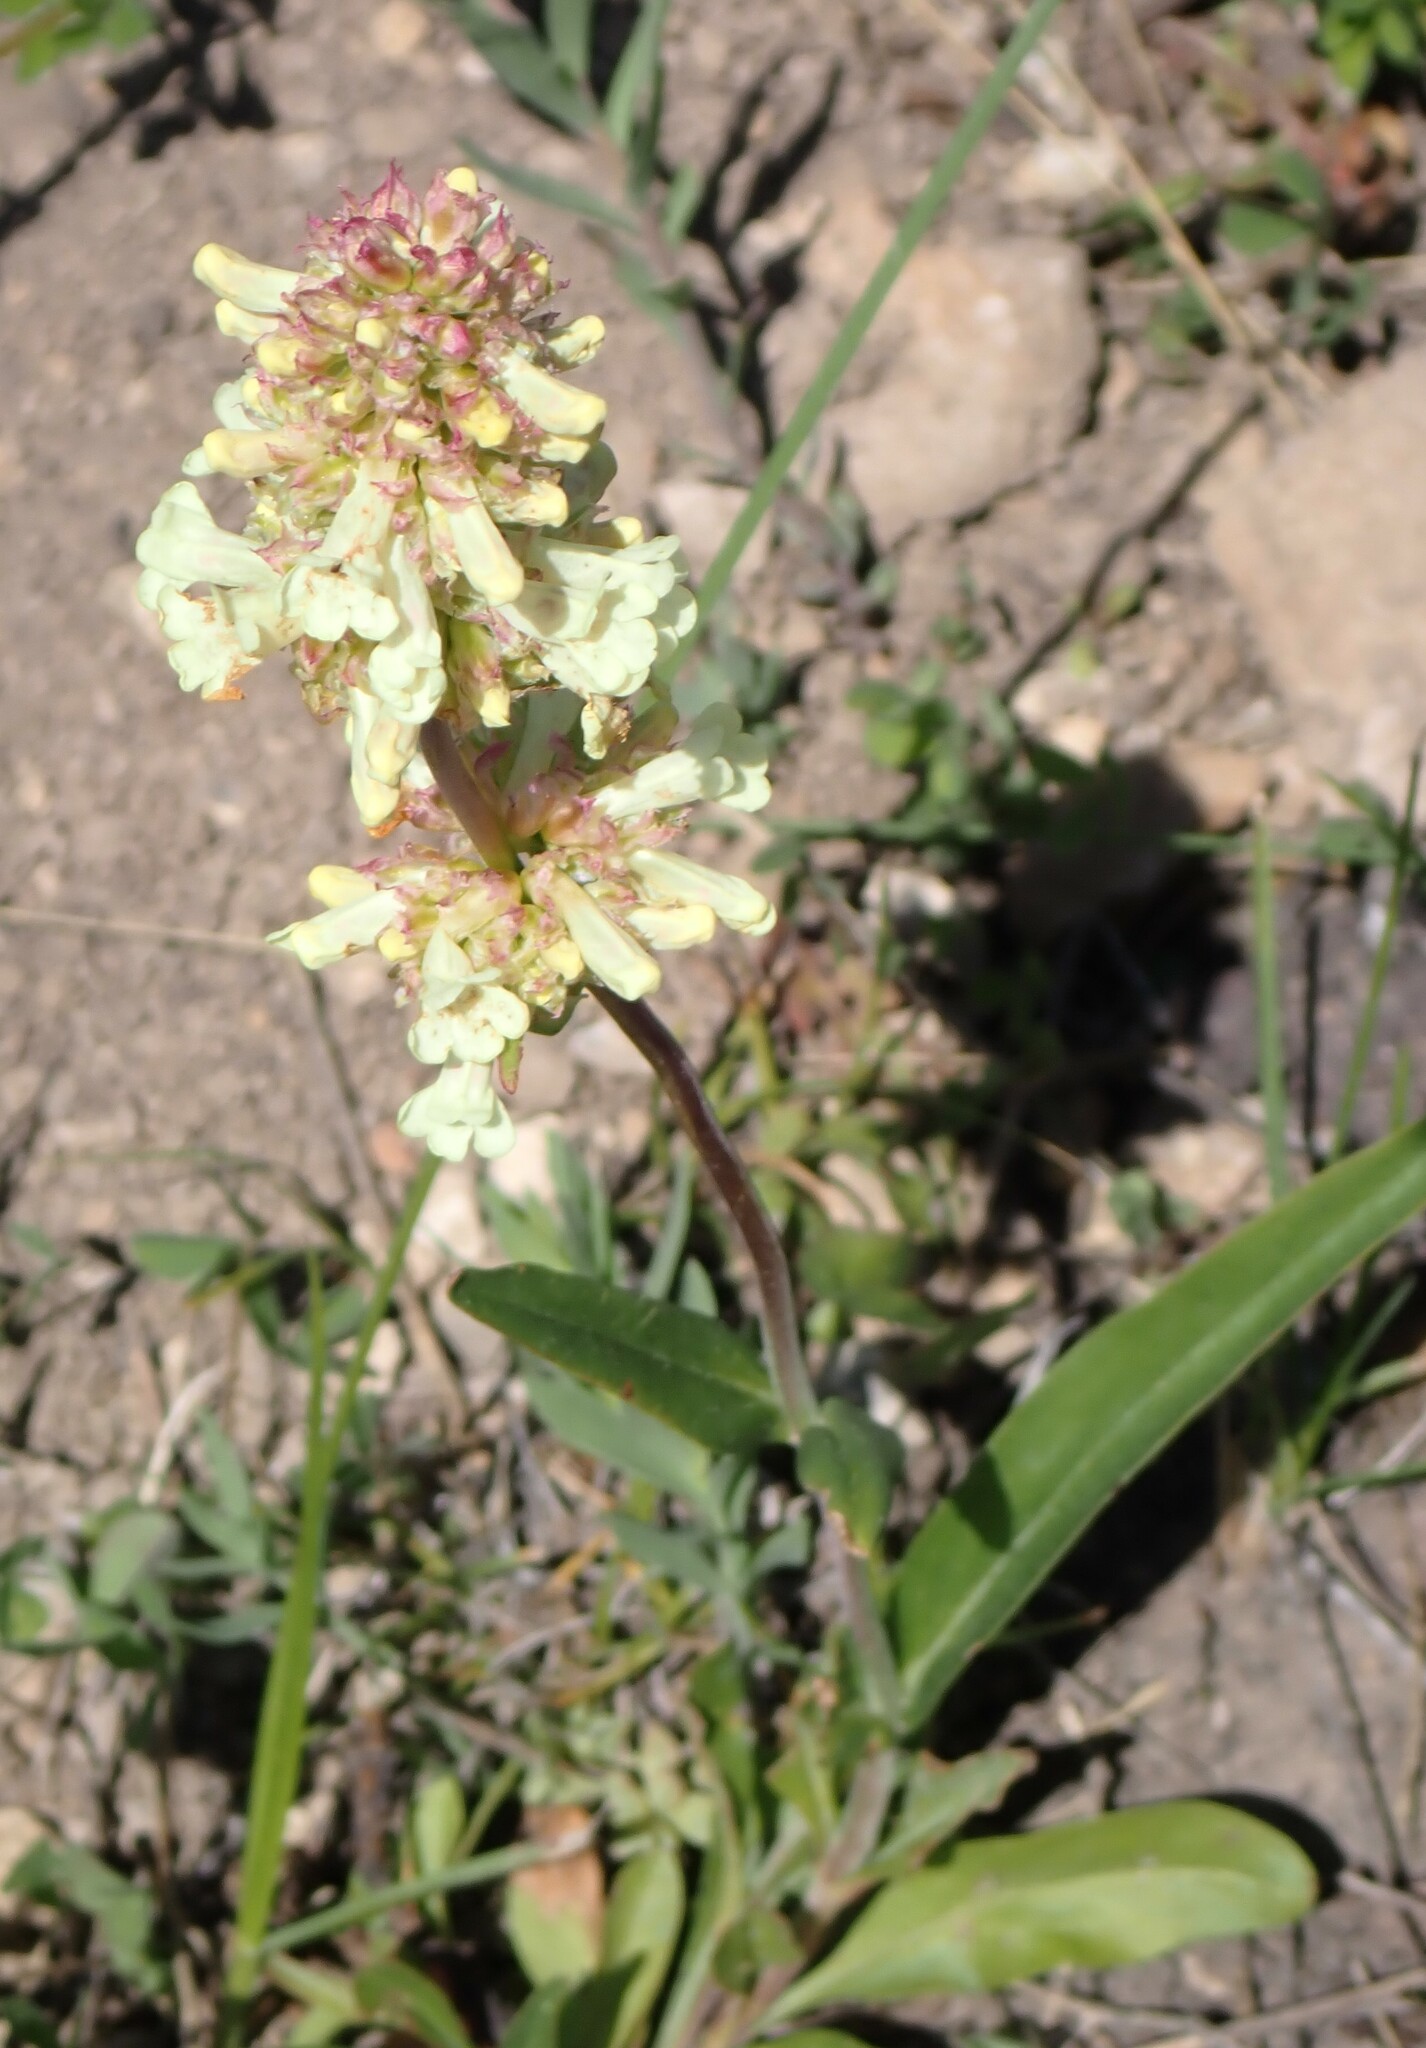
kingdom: Plantae
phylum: Tracheophyta
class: Magnoliopsida
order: Lamiales
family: Plantaginaceae
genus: Penstemon
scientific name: Penstemon confertus
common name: Lesser yellow beardtongue
